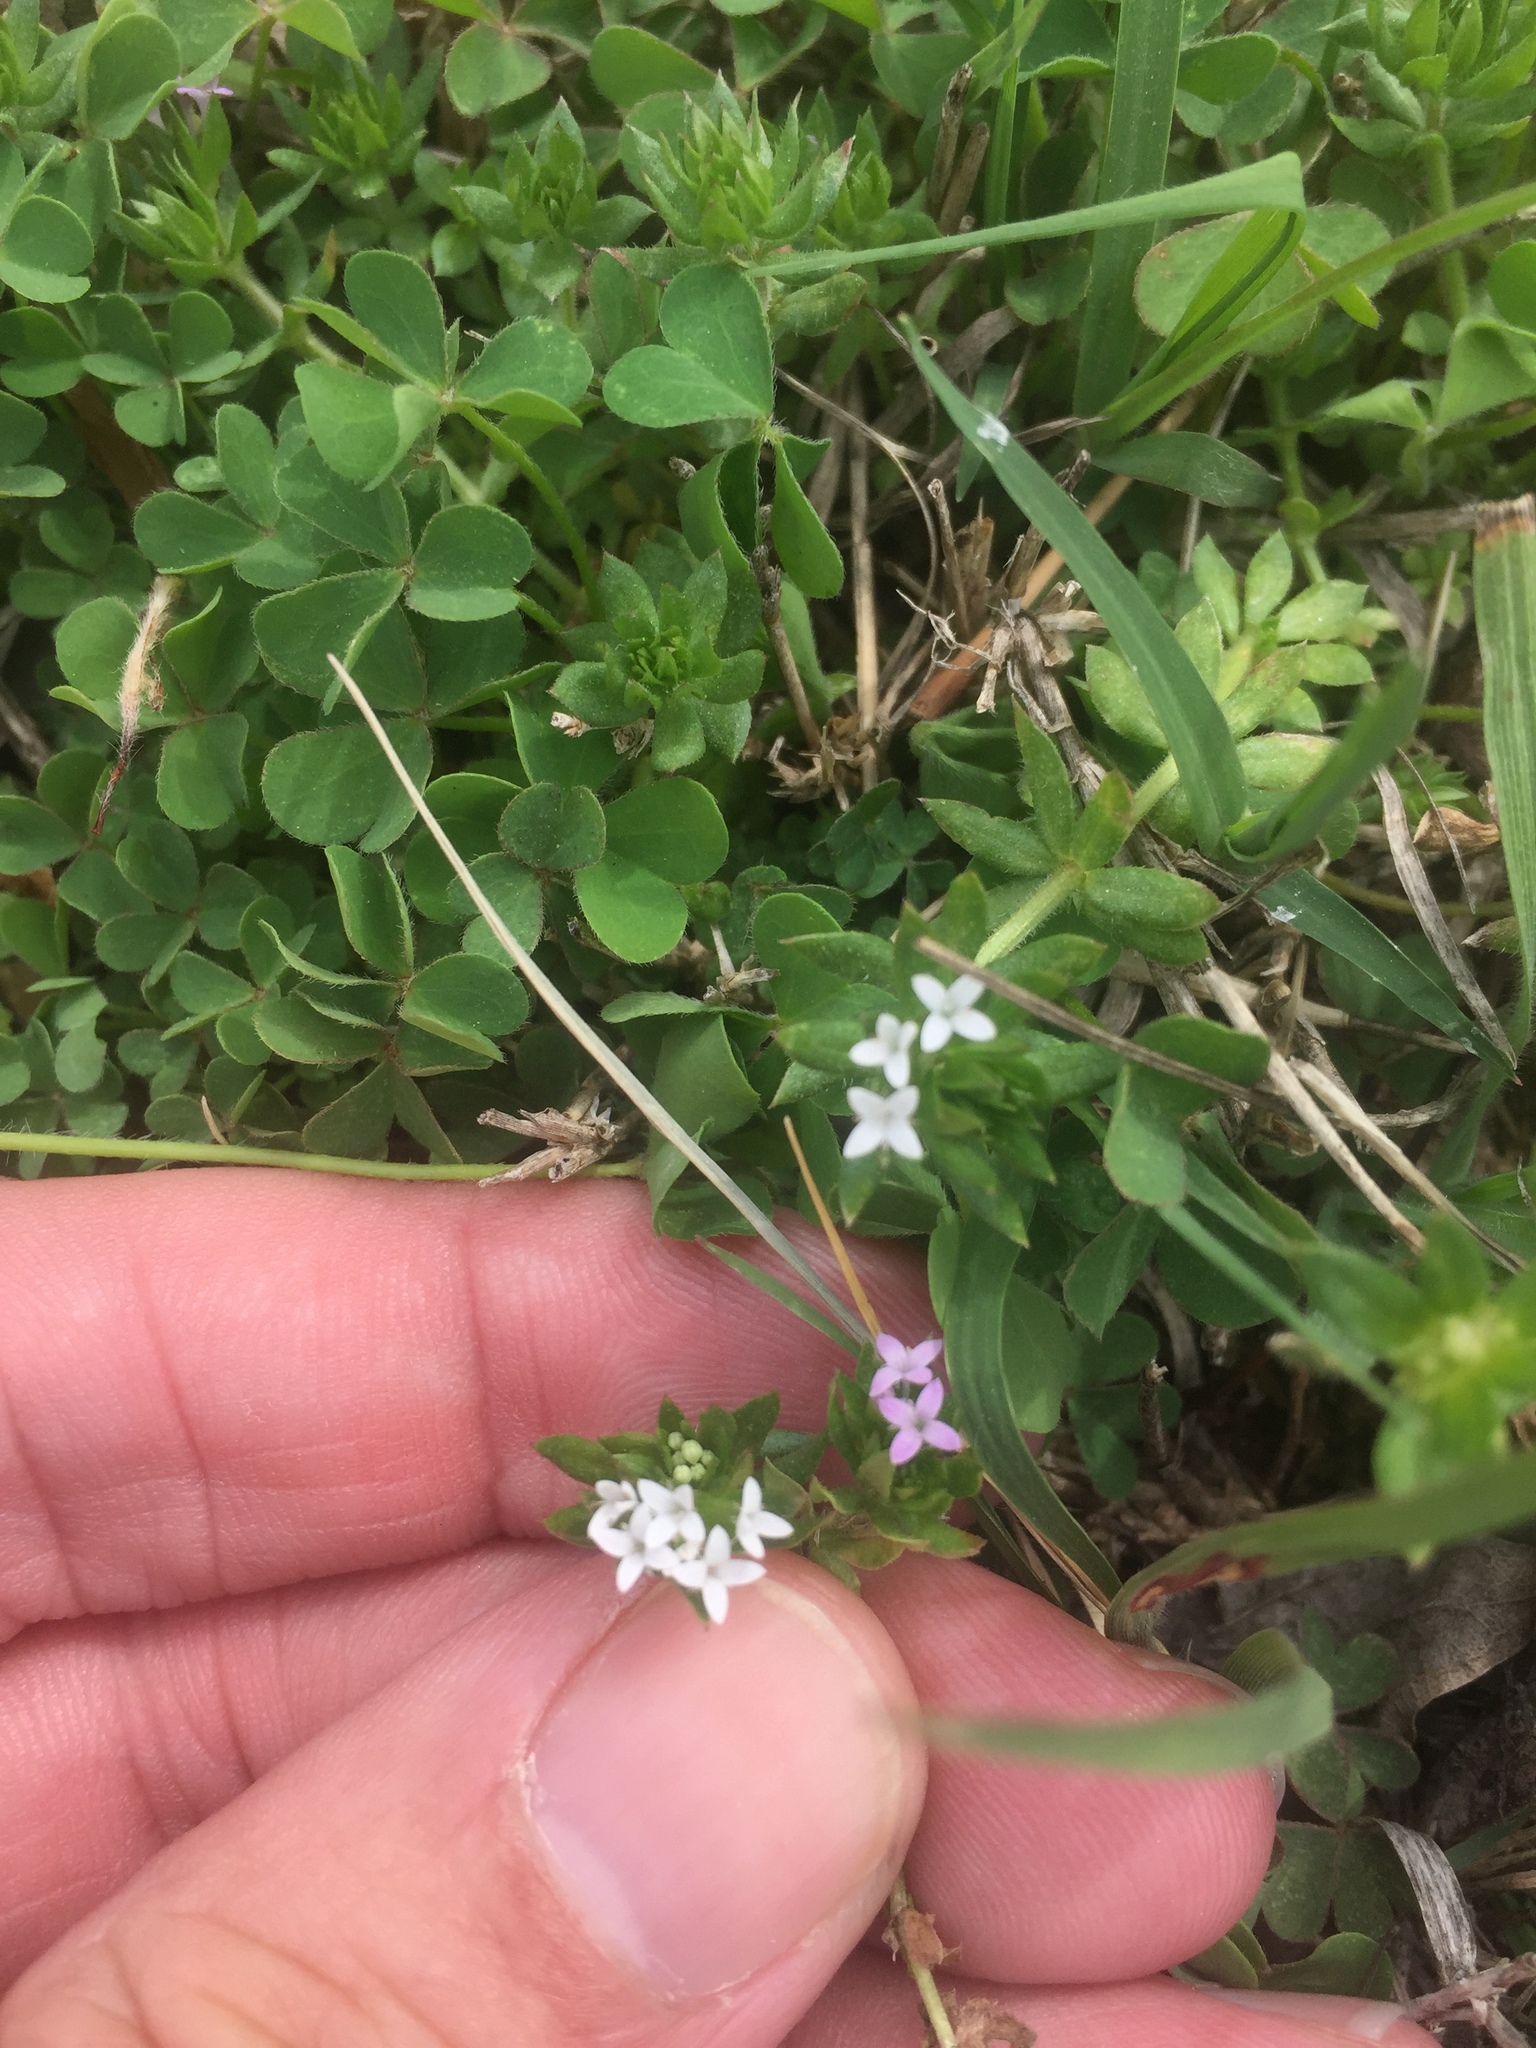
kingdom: Plantae
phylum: Tracheophyta
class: Magnoliopsida
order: Gentianales
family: Rubiaceae
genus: Sherardia
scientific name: Sherardia arvensis
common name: Field madder
